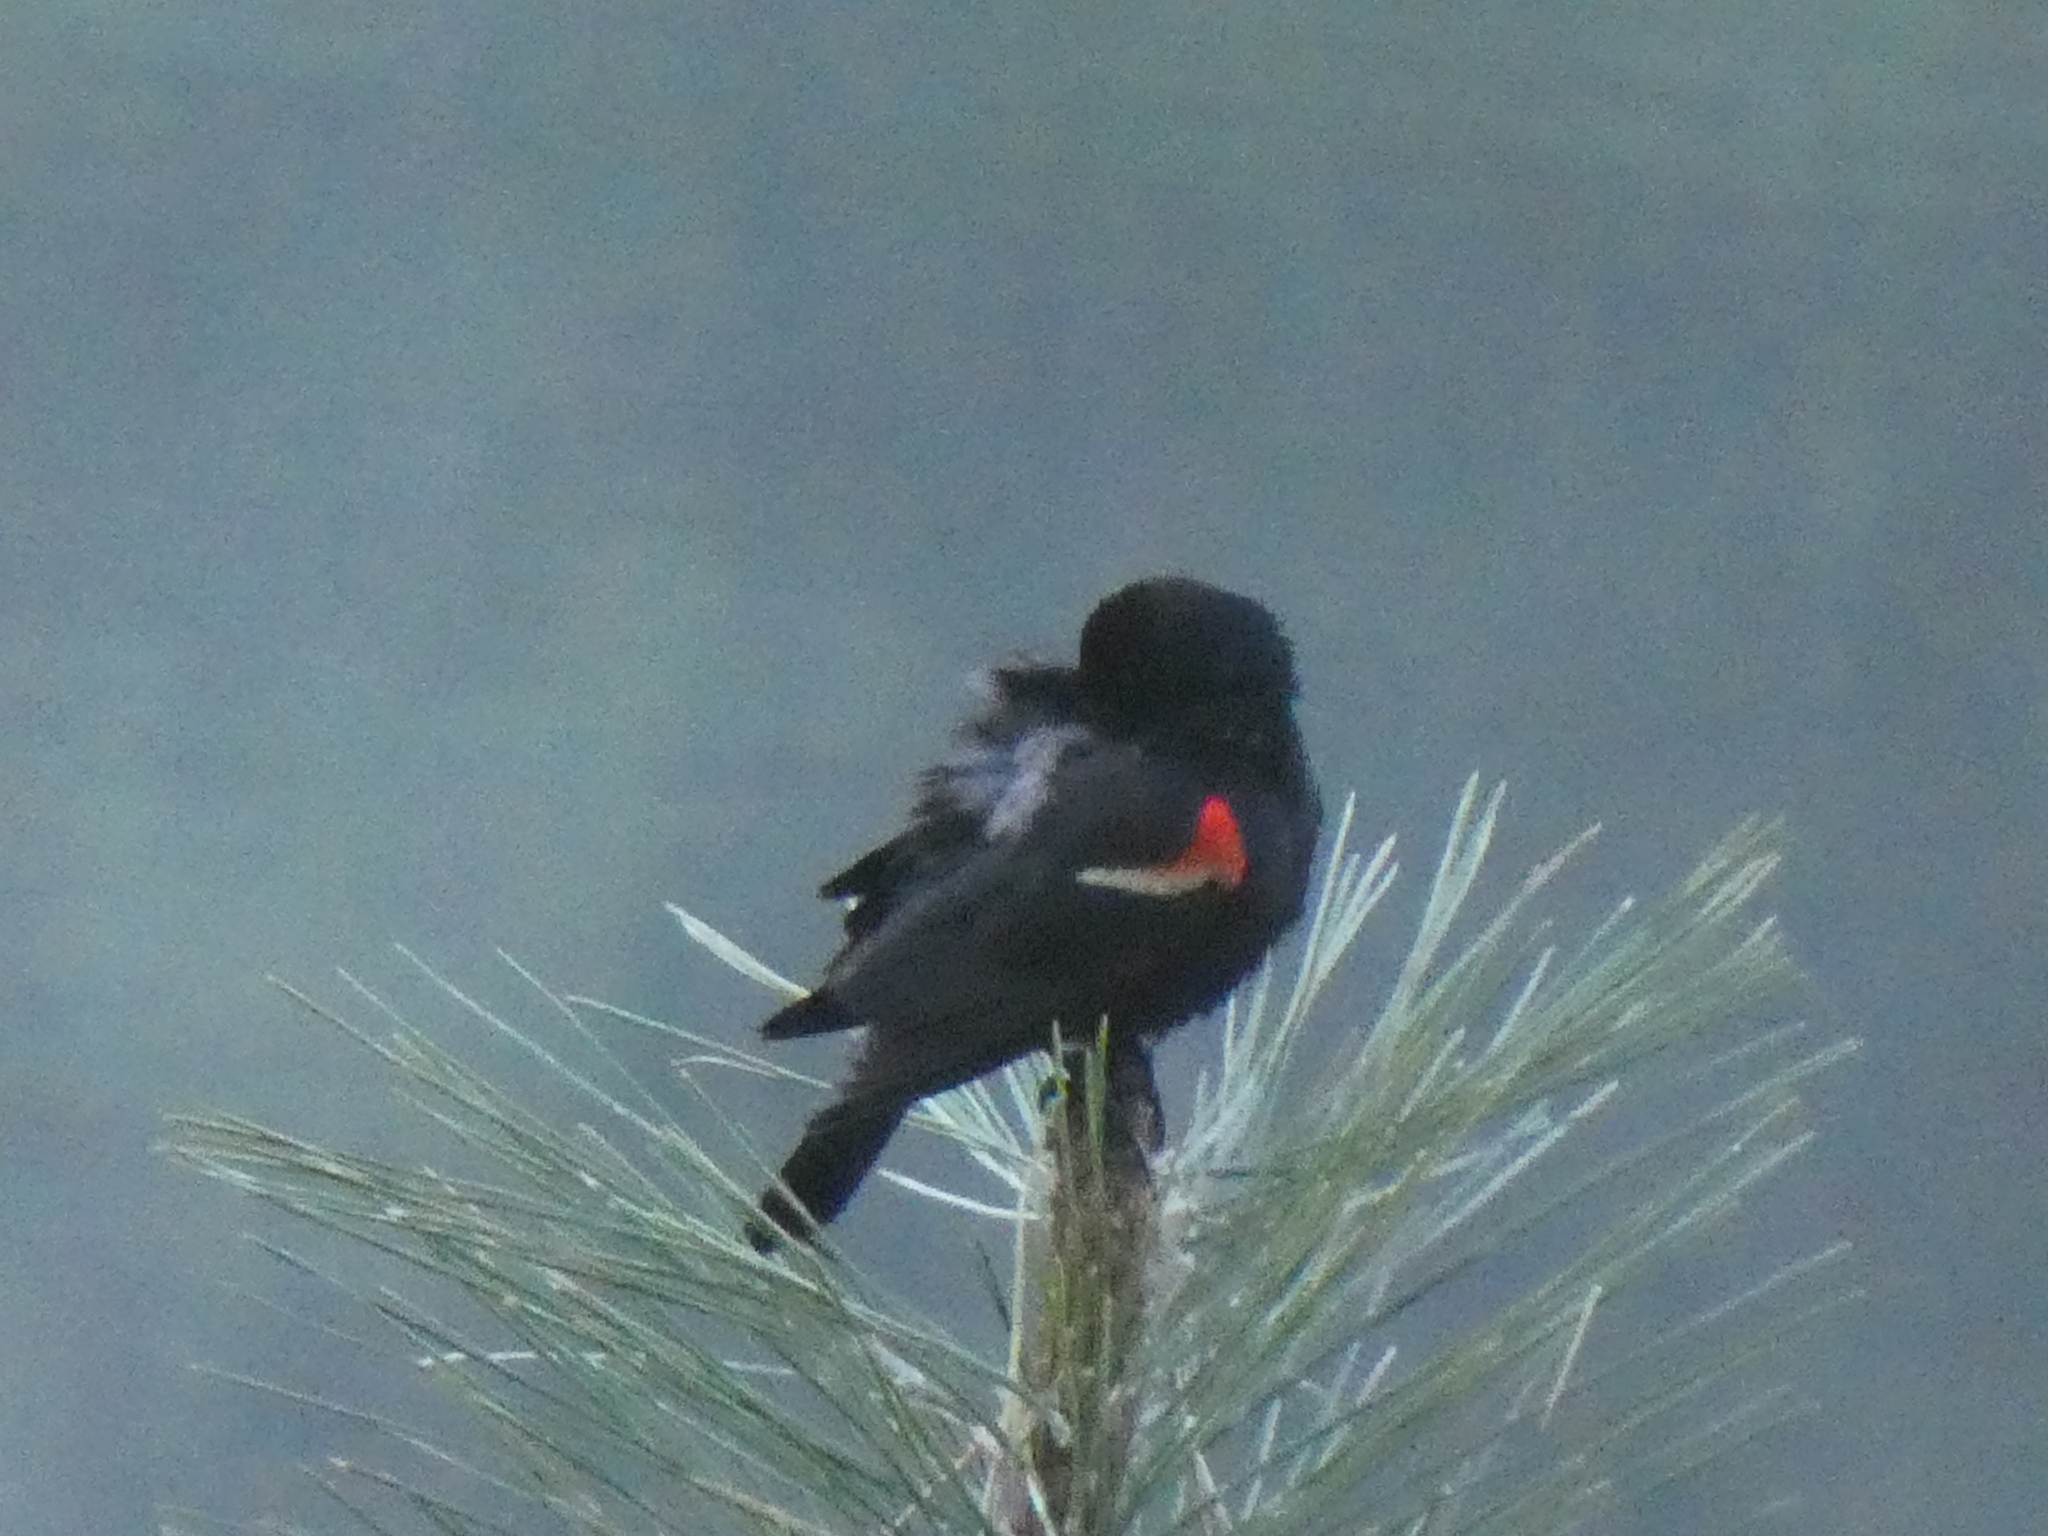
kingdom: Animalia
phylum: Chordata
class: Aves
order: Passeriformes
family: Icteridae
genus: Agelaius
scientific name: Agelaius phoeniceus
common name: Red-winged blackbird
